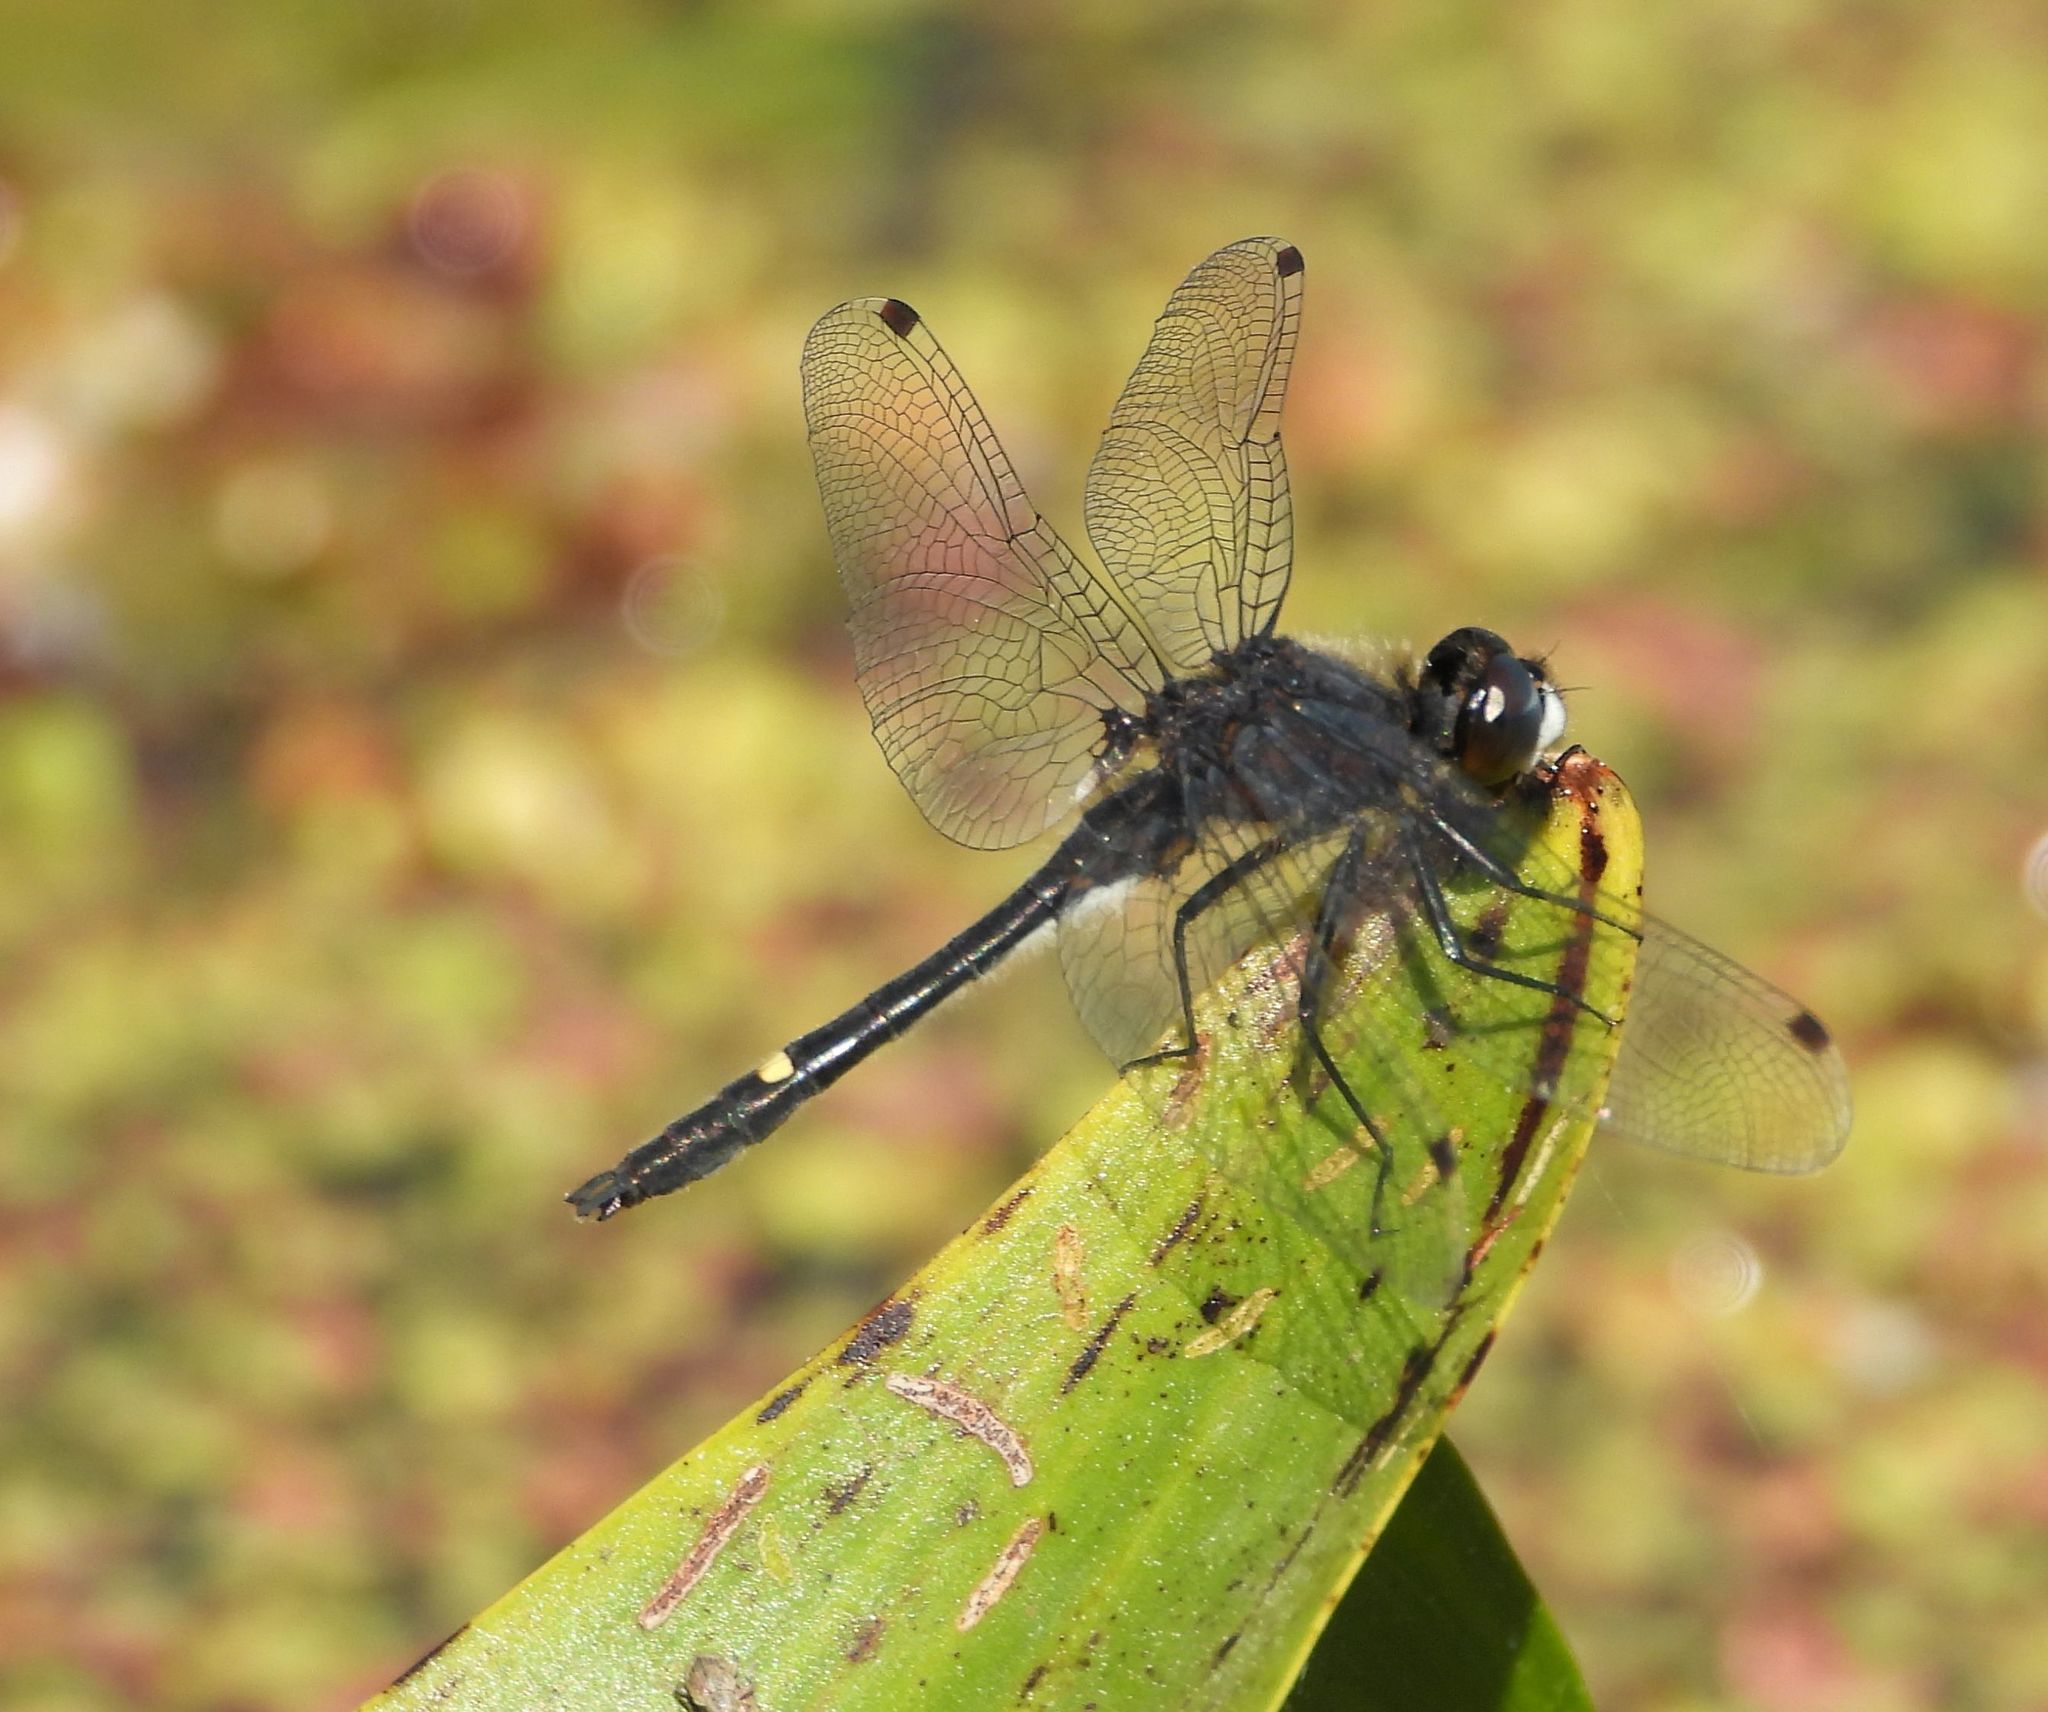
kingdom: Animalia
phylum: Arthropoda
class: Insecta
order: Odonata
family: Libellulidae
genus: Leucorrhinia
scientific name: Leucorrhinia intacta
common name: Dot-tailed whiteface
